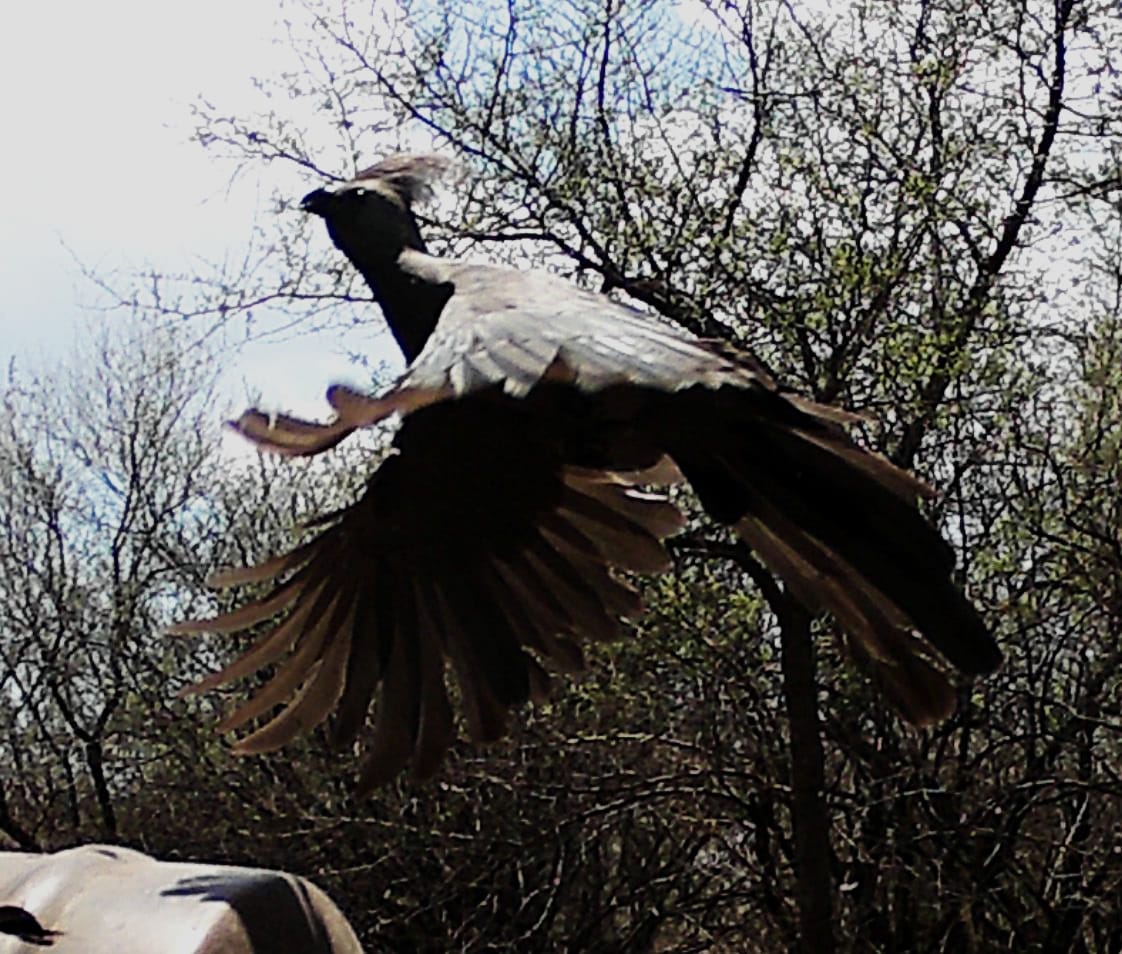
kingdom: Animalia
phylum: Chordata
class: Aves
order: Musophagiformes
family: Musophagidae
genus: Corythaixoides
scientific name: Corythaixoides concolor
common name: Grey go-away-bird
